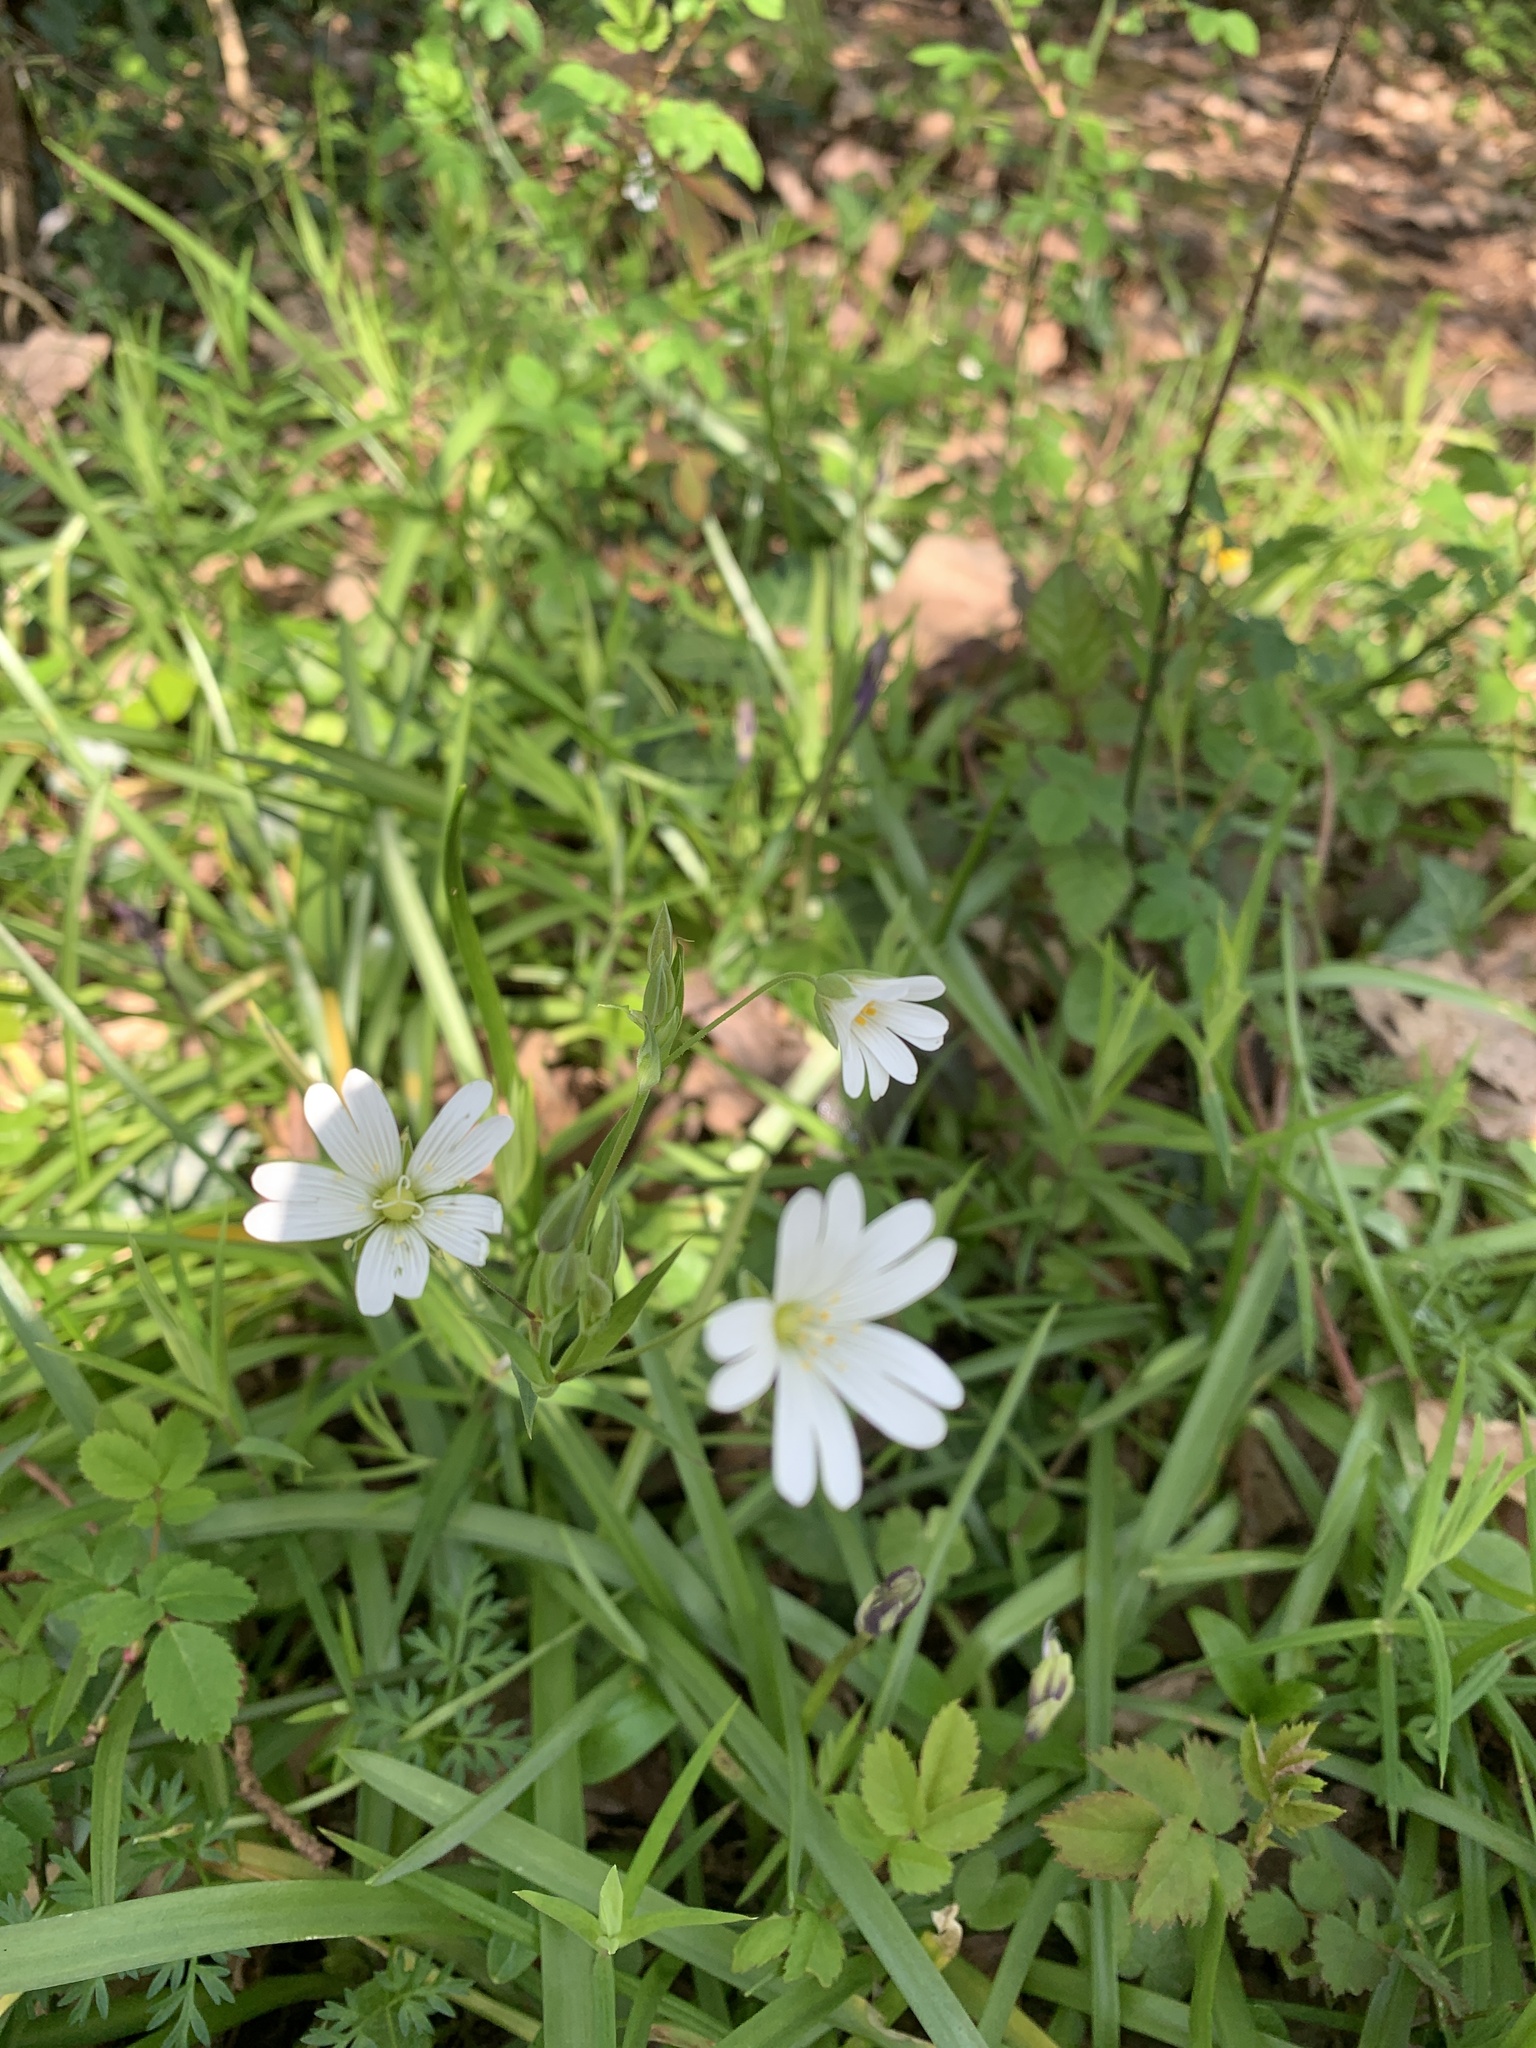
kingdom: Plantae
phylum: Tracheophyta
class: Magnoliopsida
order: Caryophyllales
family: Caryophyllaceae
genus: Rabelera
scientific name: Rabelera holostea
